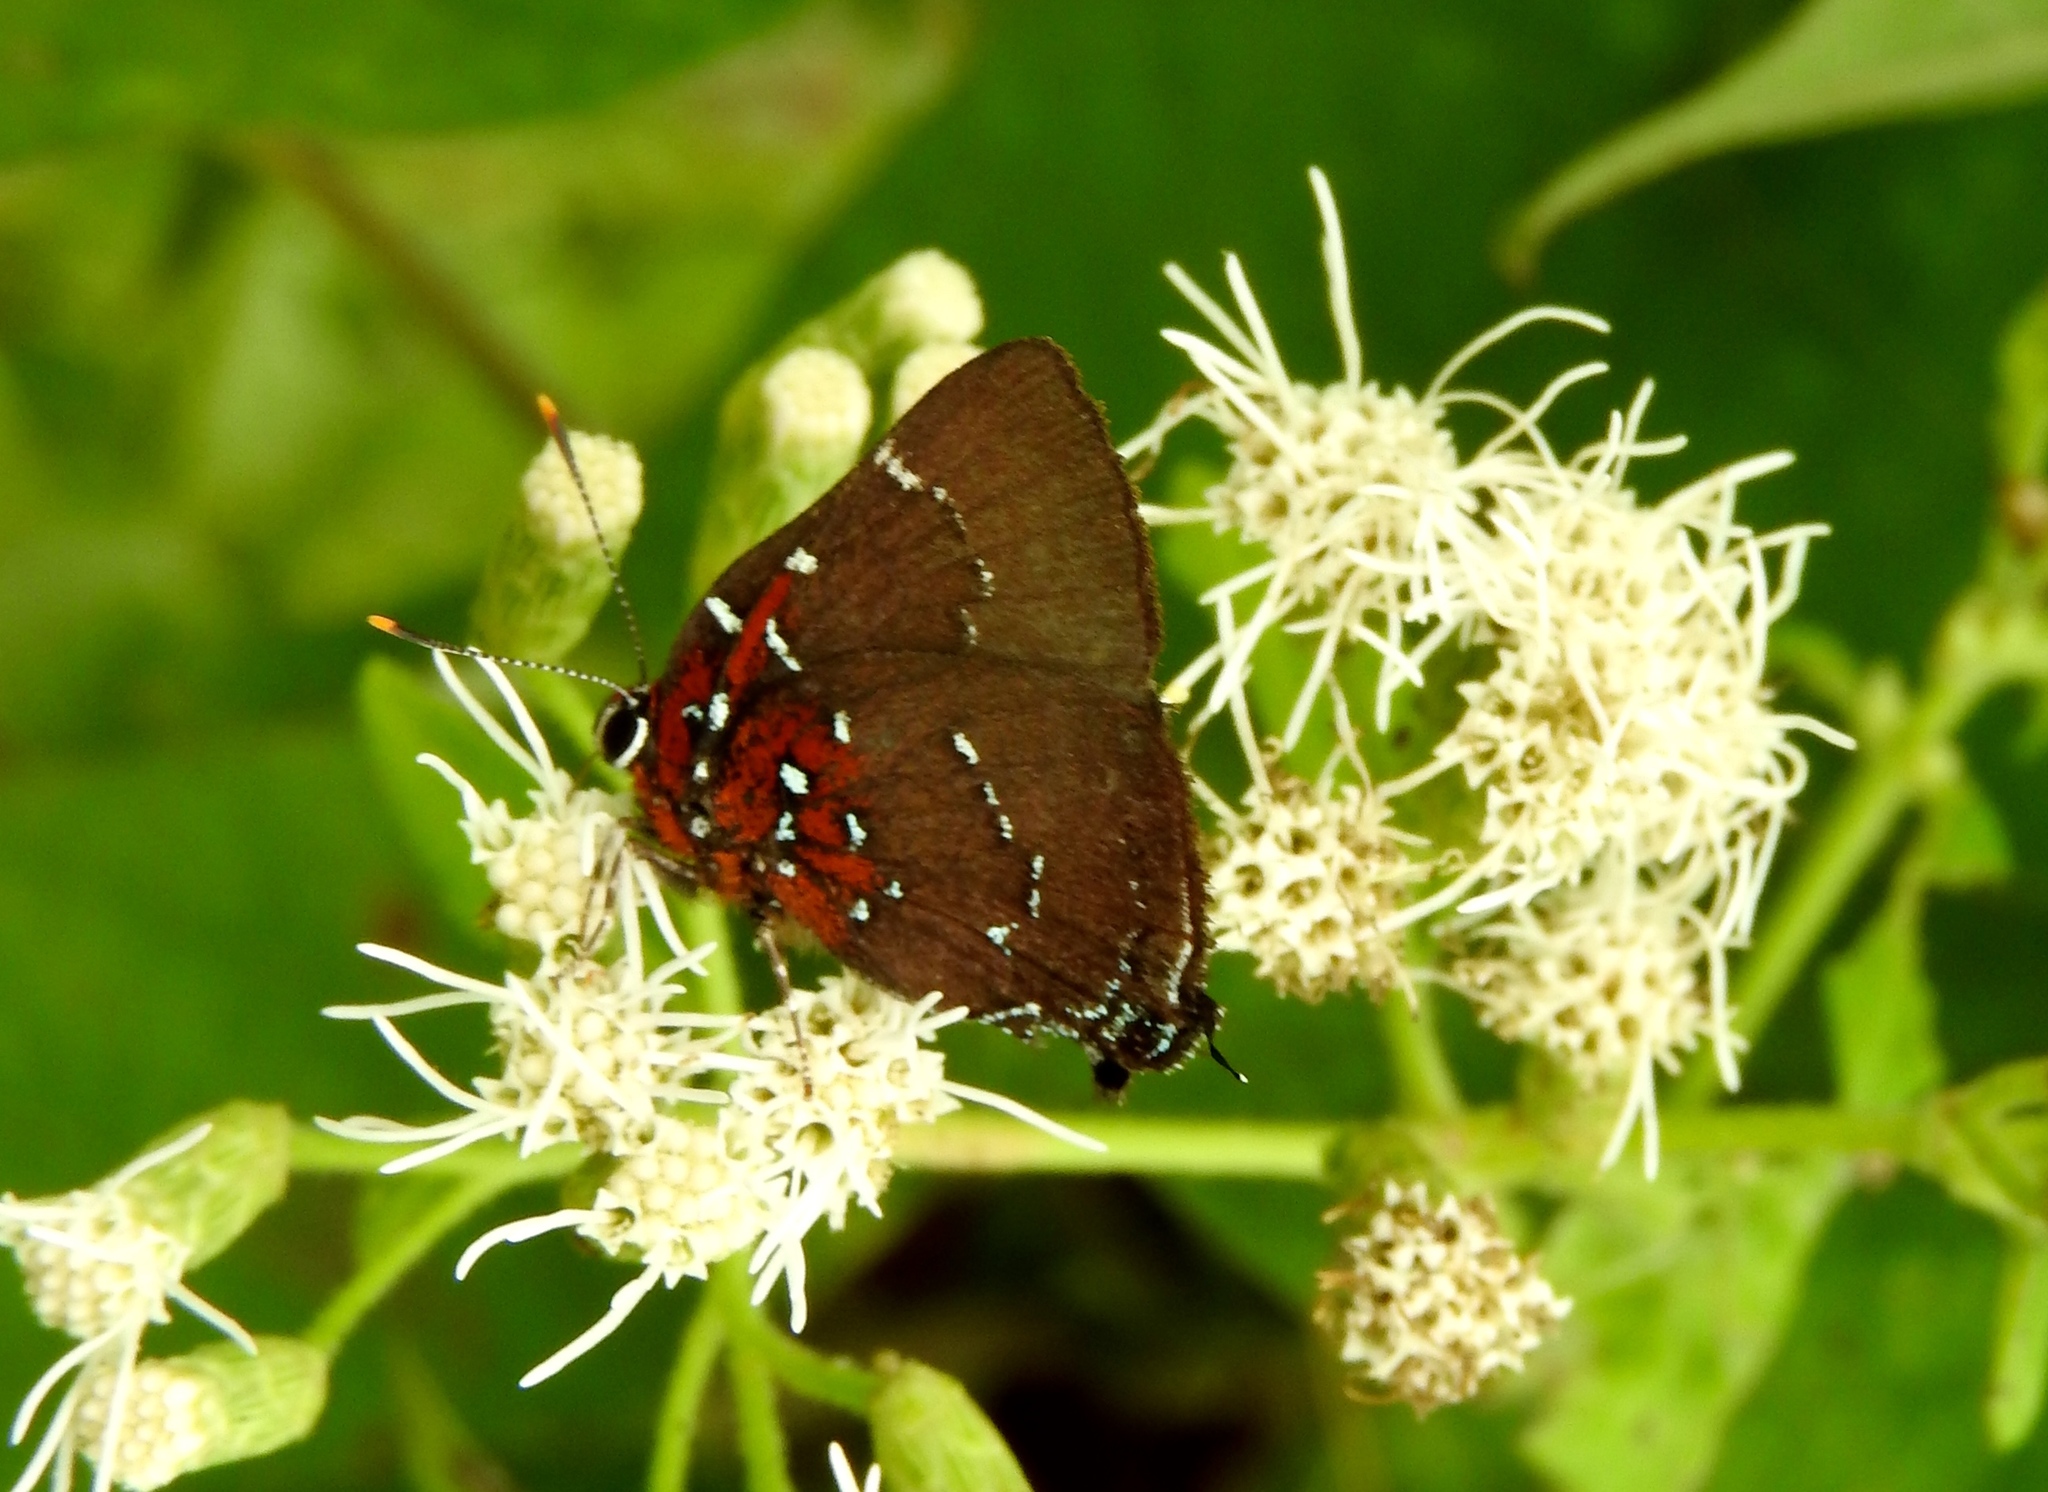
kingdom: Animalia
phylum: Arthropoda
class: Insecta
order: Lepidoptera
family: Lycaenidae
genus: Atlides
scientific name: Atlides Brangas neora
